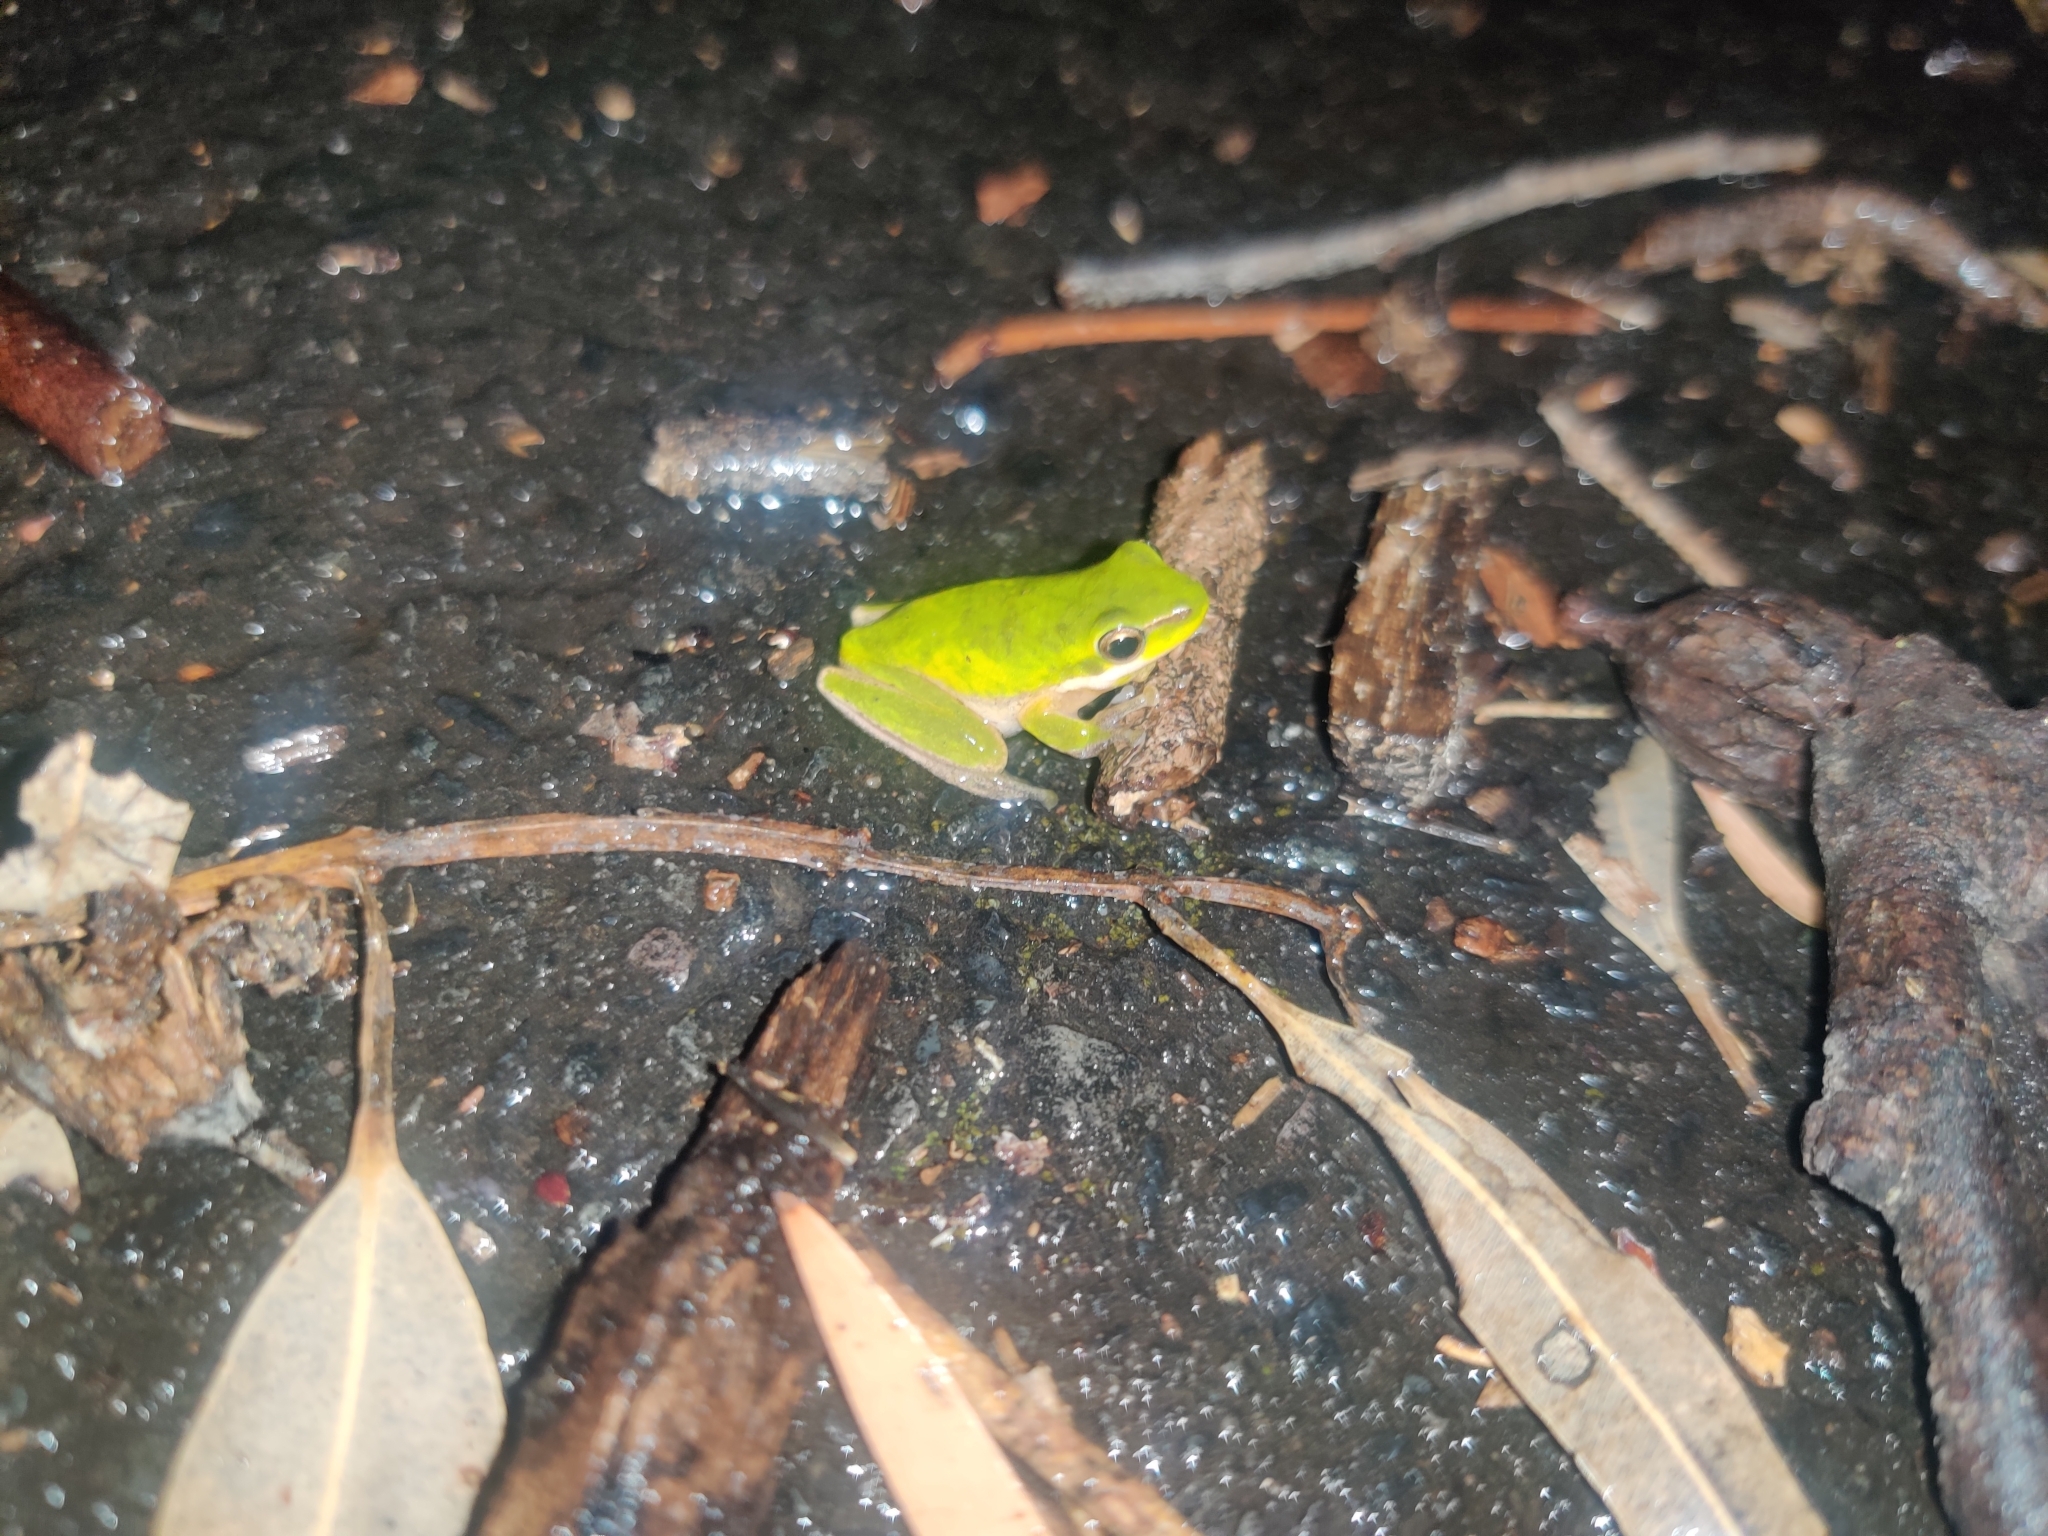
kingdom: Animalia
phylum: Chordata
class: Amphibia
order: Anura
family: Pelodryadidae
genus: Litoria
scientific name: Litoria fallax
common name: Eastern dwarf treefrog
